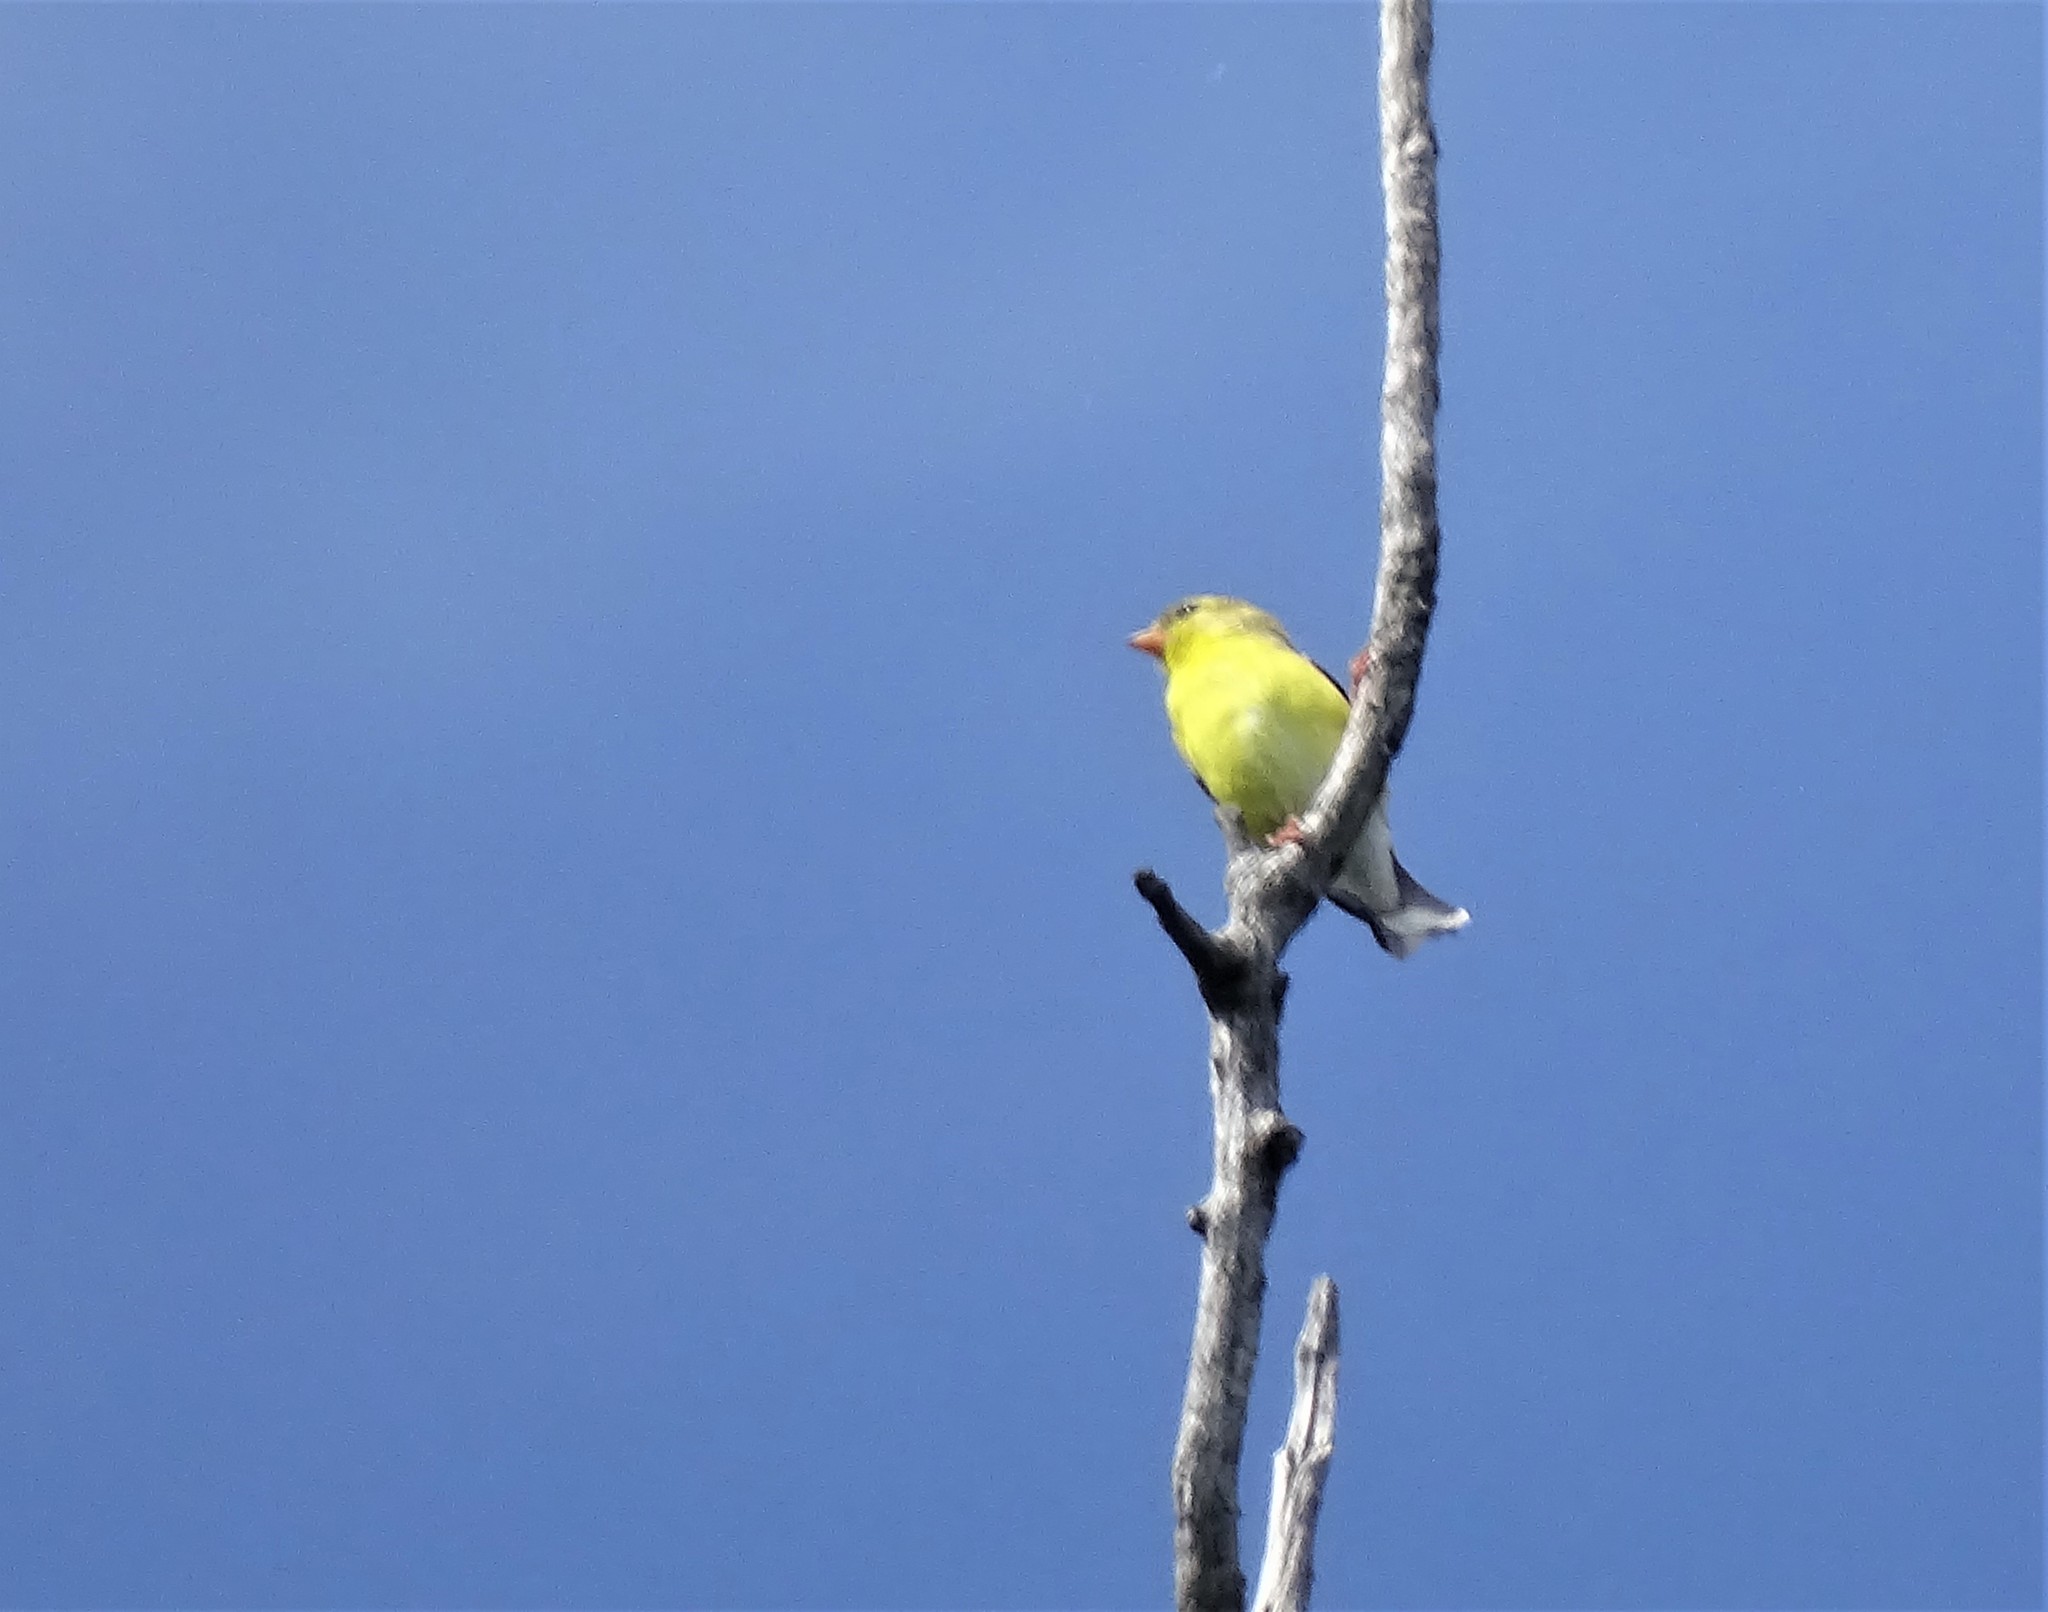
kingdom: Animalia
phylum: Chordata
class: Aves
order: Passeriformes
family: Fringillidae
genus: Spinus
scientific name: Spinus tristis
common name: American goldfinch
